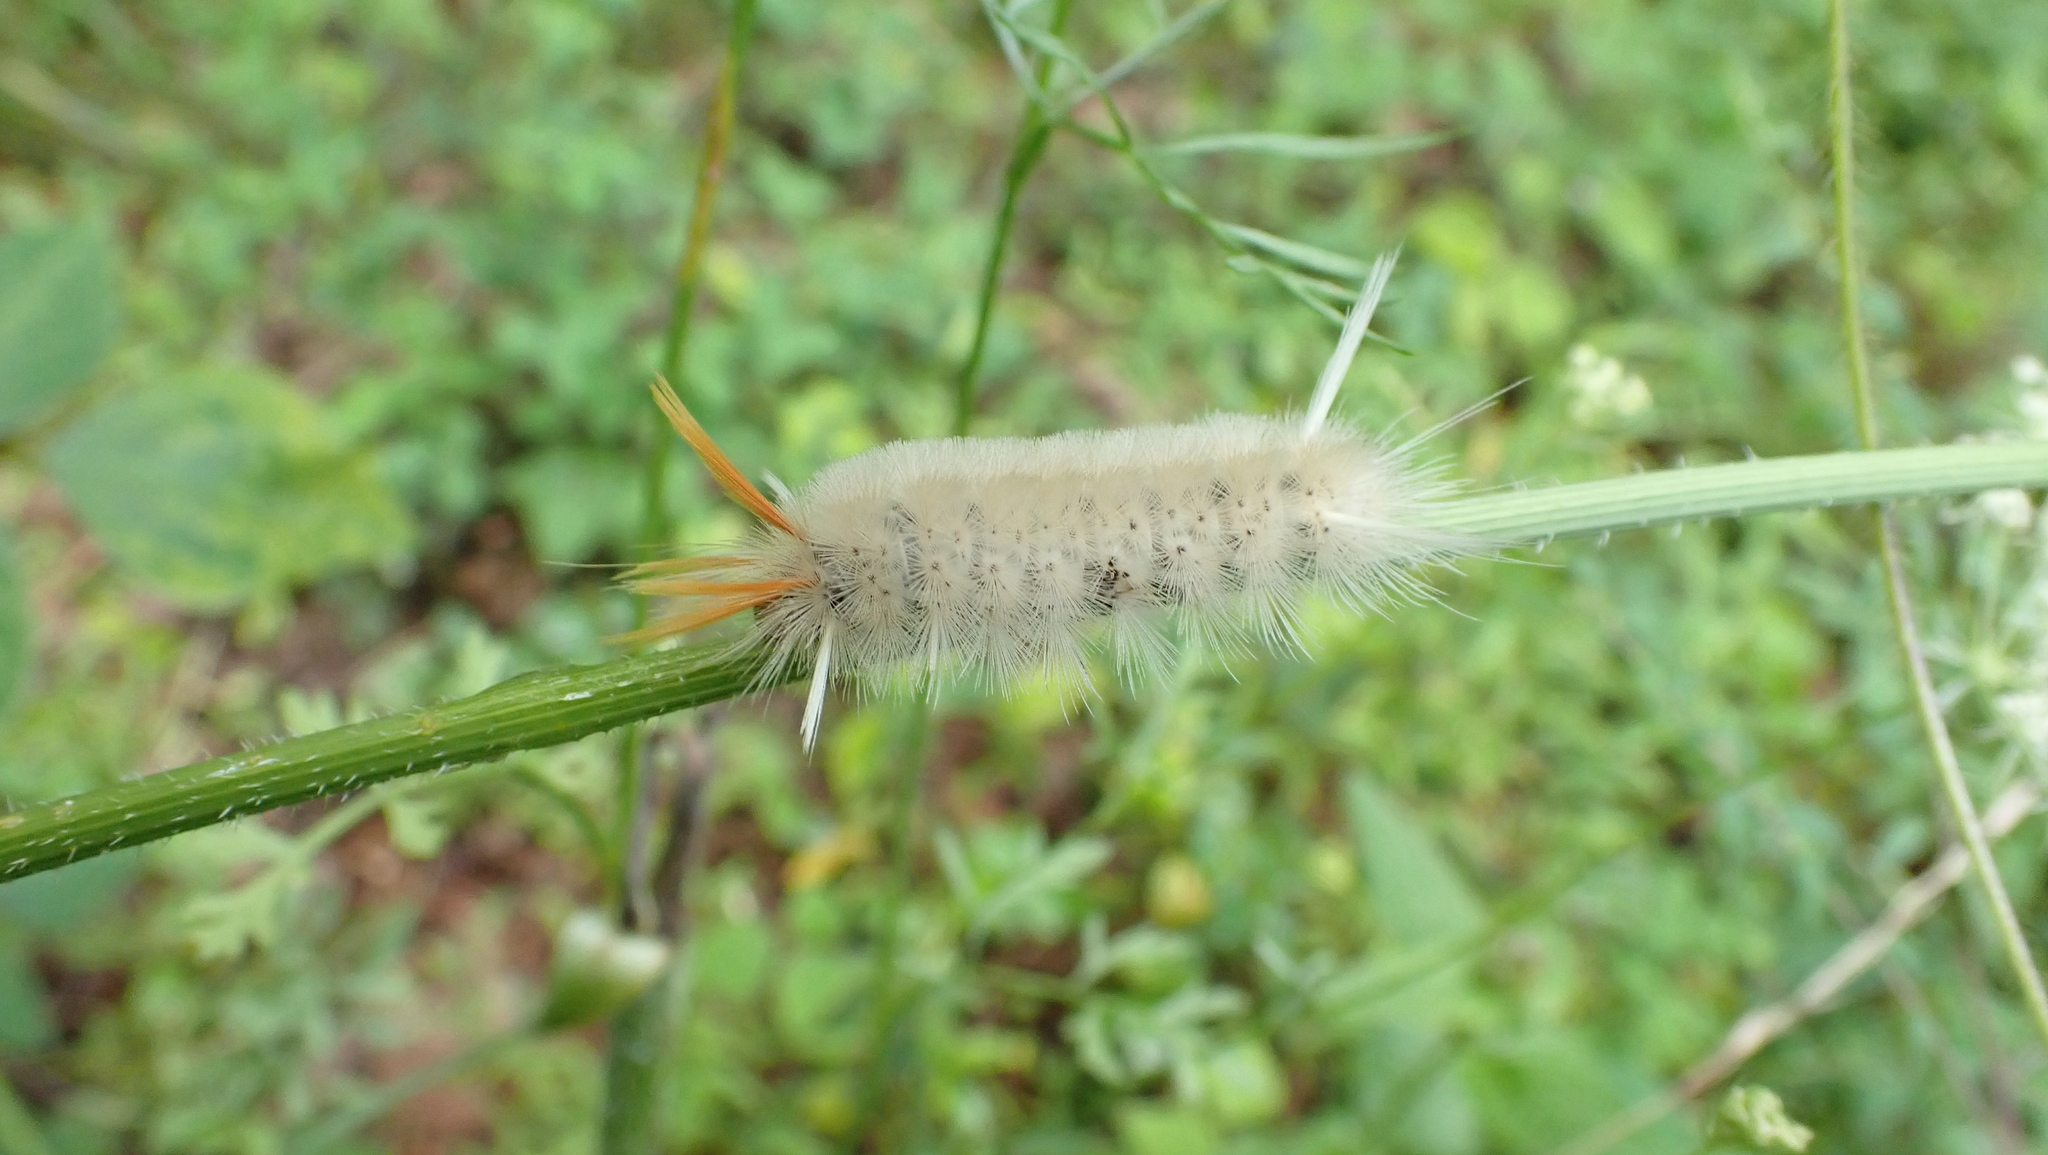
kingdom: Animalia
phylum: Arthropoda
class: Insecta
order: Lepidoptera
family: Erebidae
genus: Halysidota
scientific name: Halysidota harrisii
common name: Sycamore tussock moth
